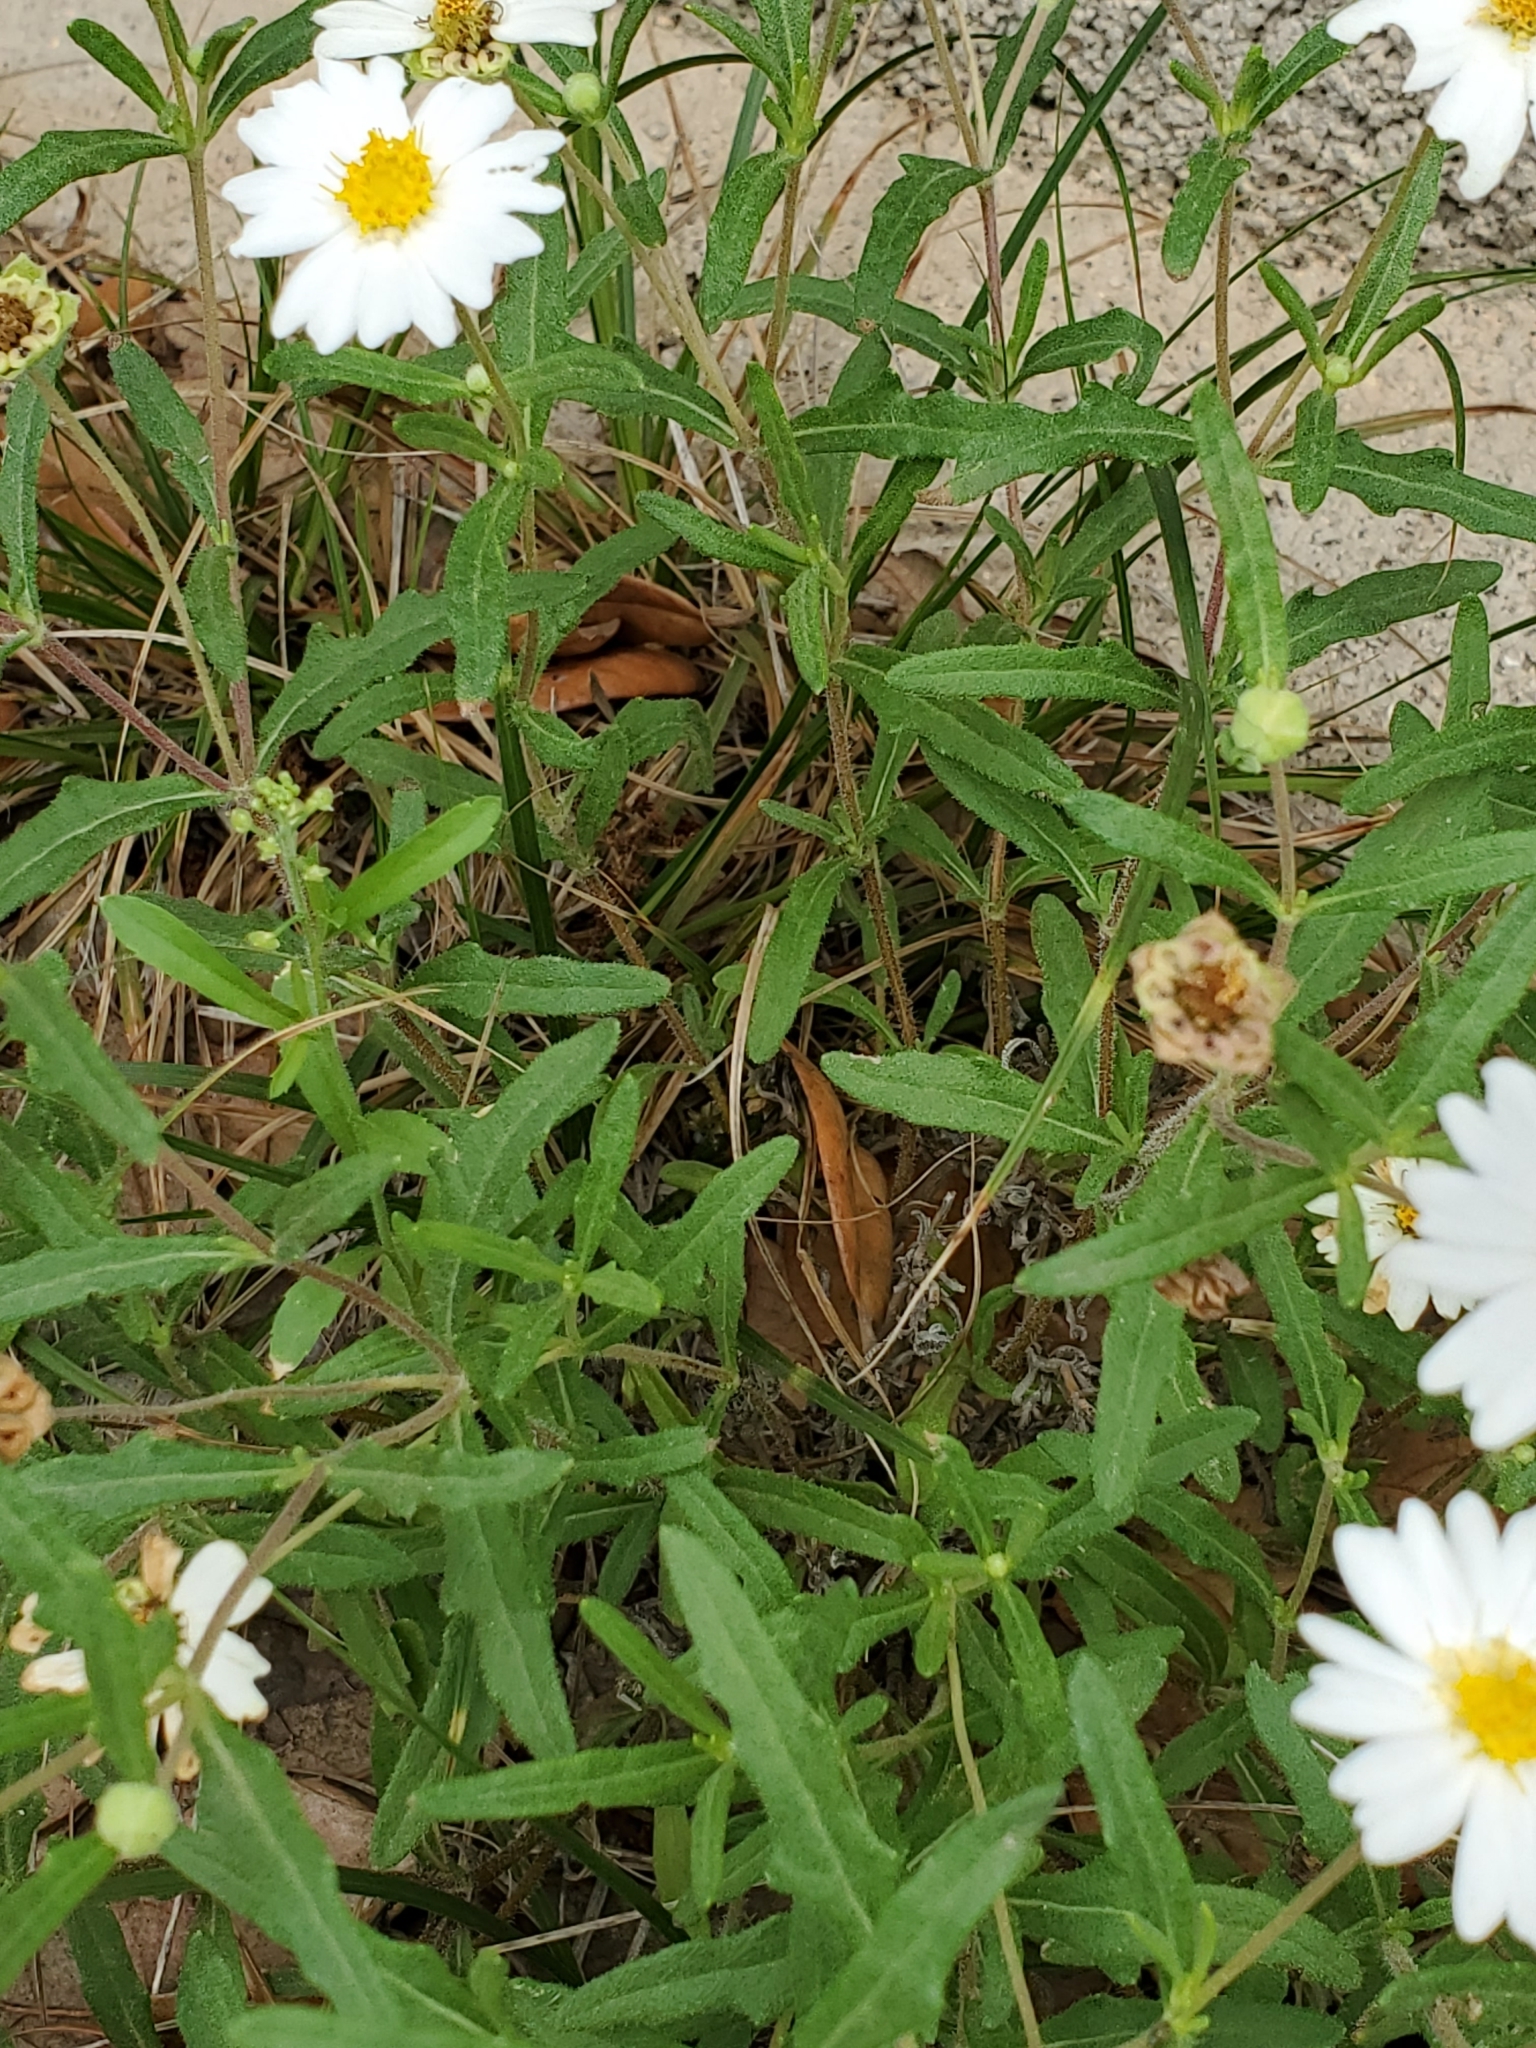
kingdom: Plantae
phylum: Tracheophyta
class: Magnoliopsida
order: Asterales
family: Asteraceae
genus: Melampodium
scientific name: Melampodium leucanthum
